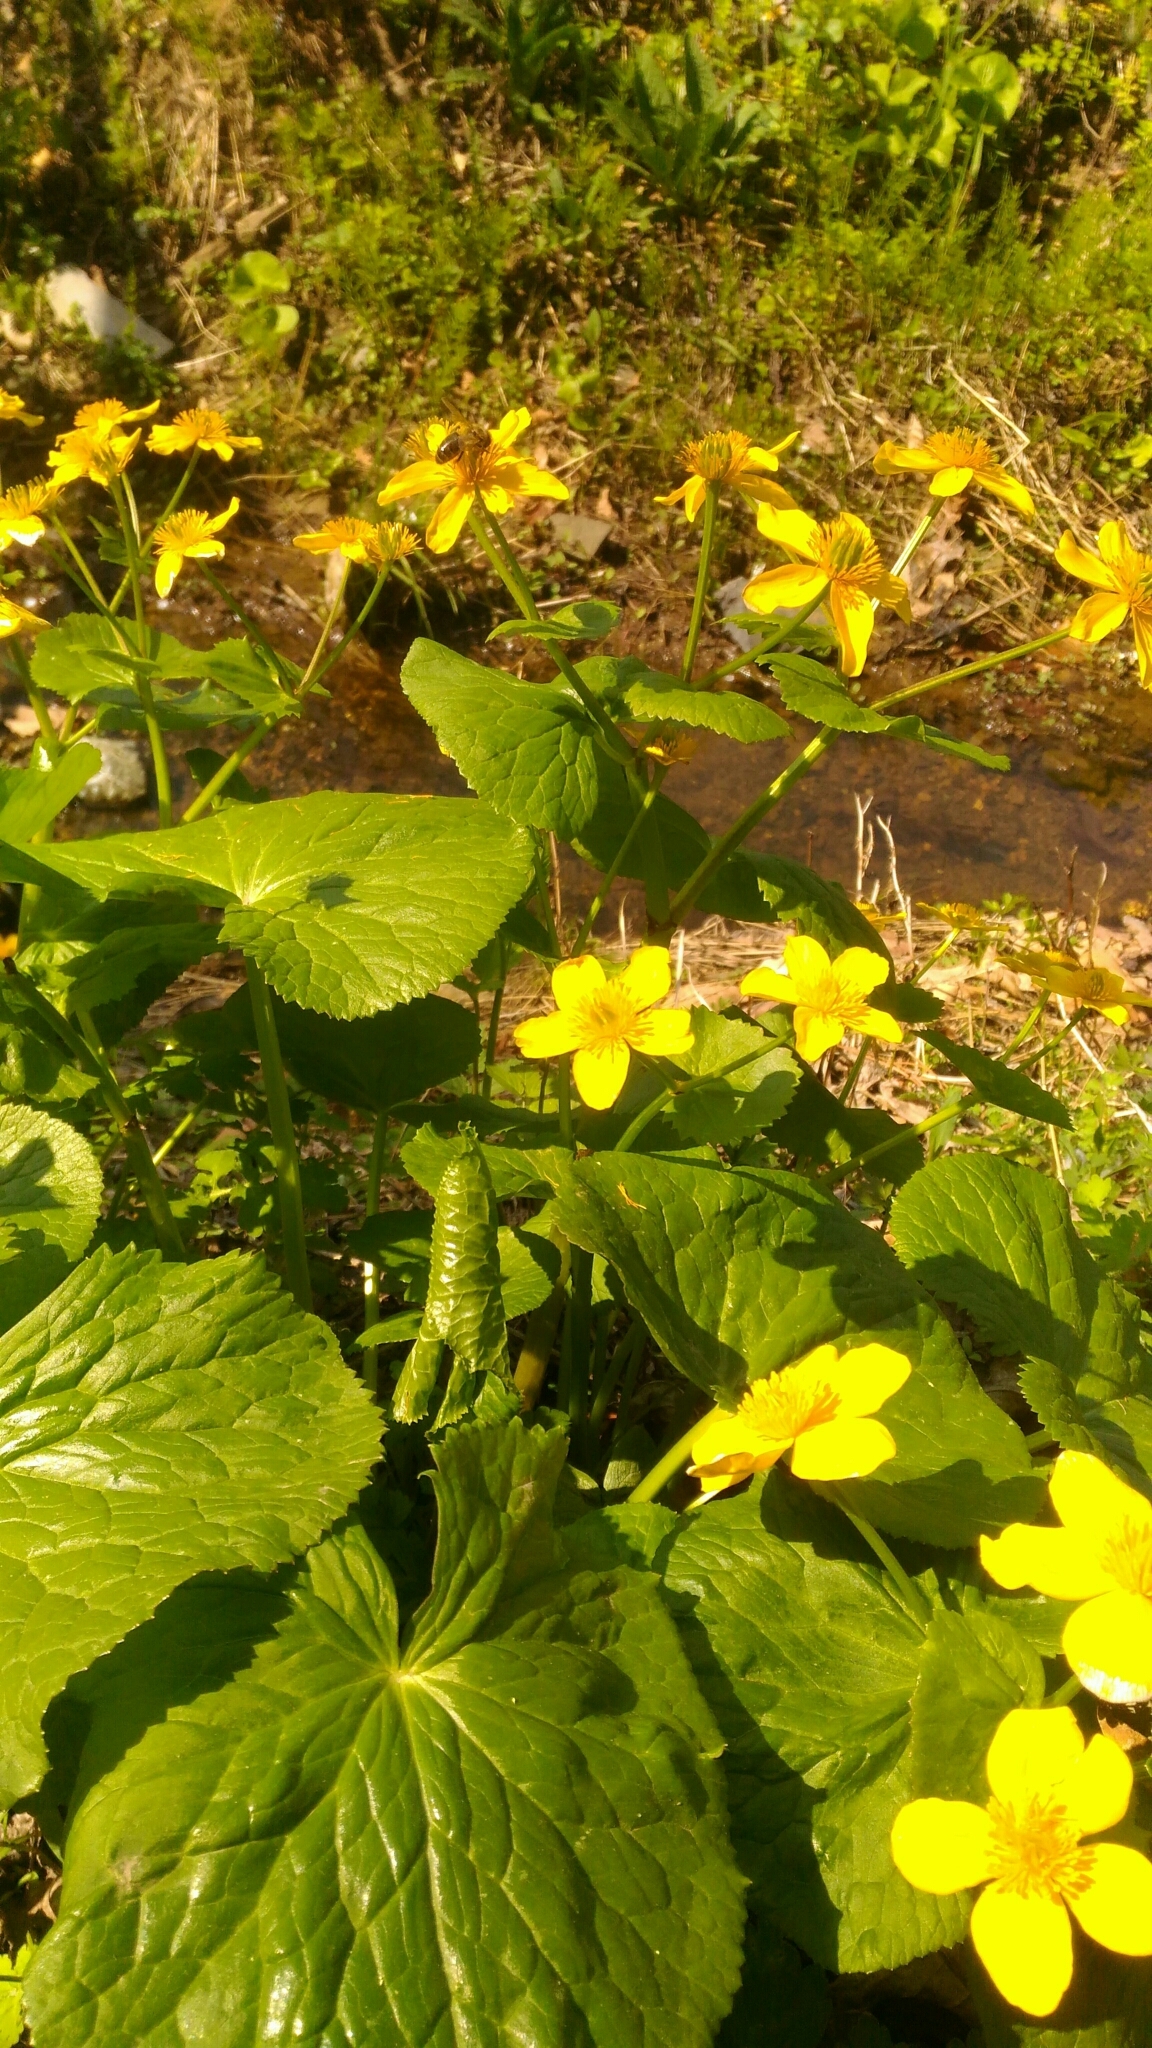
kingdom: Plantae
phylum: Tracheophyta
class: Magnoliopsida
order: Ranunculales
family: Ranunculaceae
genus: Caltha
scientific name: Caltha palustris
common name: Marsh marigold
